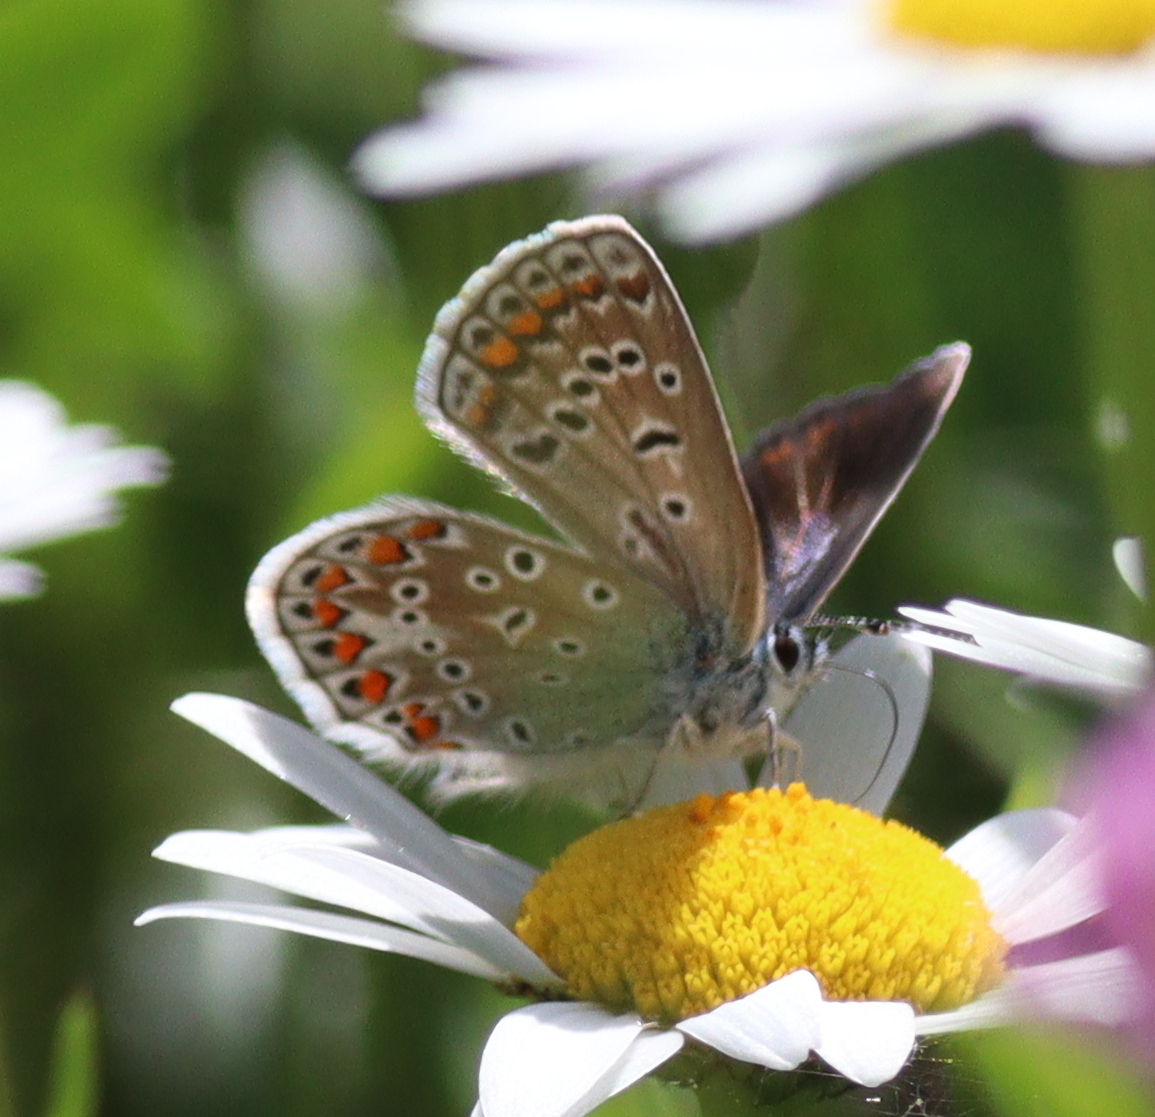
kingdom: Animalia
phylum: Arthropoda
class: Insecta
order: Lepidoptera
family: Lycaenidae
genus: Polyommatus
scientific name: Polyommatus icarus
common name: Common blue
